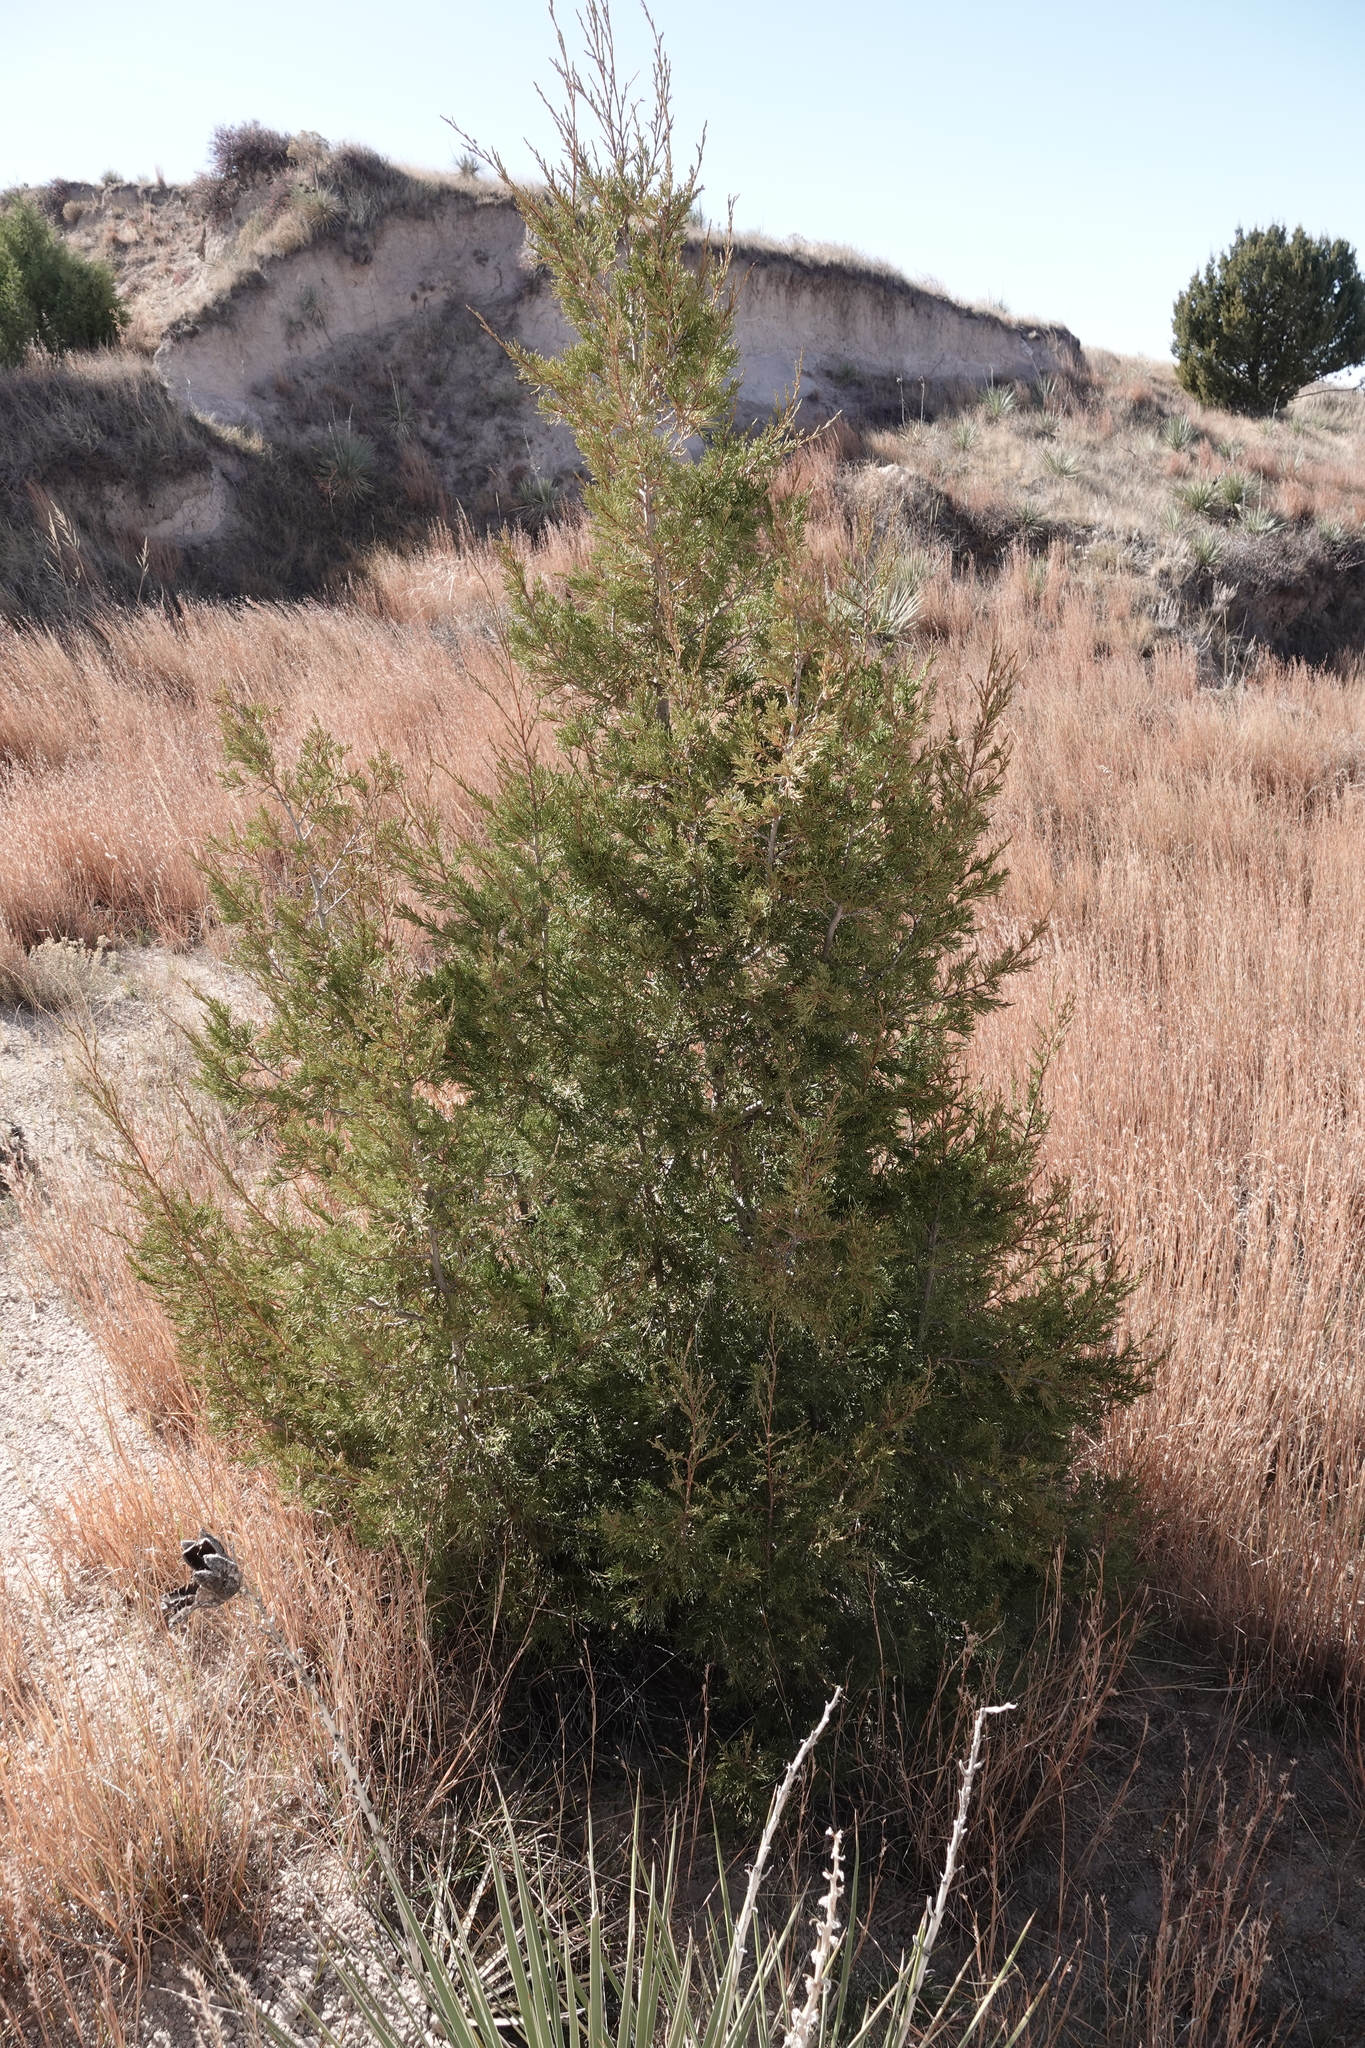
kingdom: Plantae
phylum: Tracheophyta
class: Pinopsida
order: Pinales
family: Cupressaceae
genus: Juniperus
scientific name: Juniperus scopulorum
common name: Rocky mountain juniper
